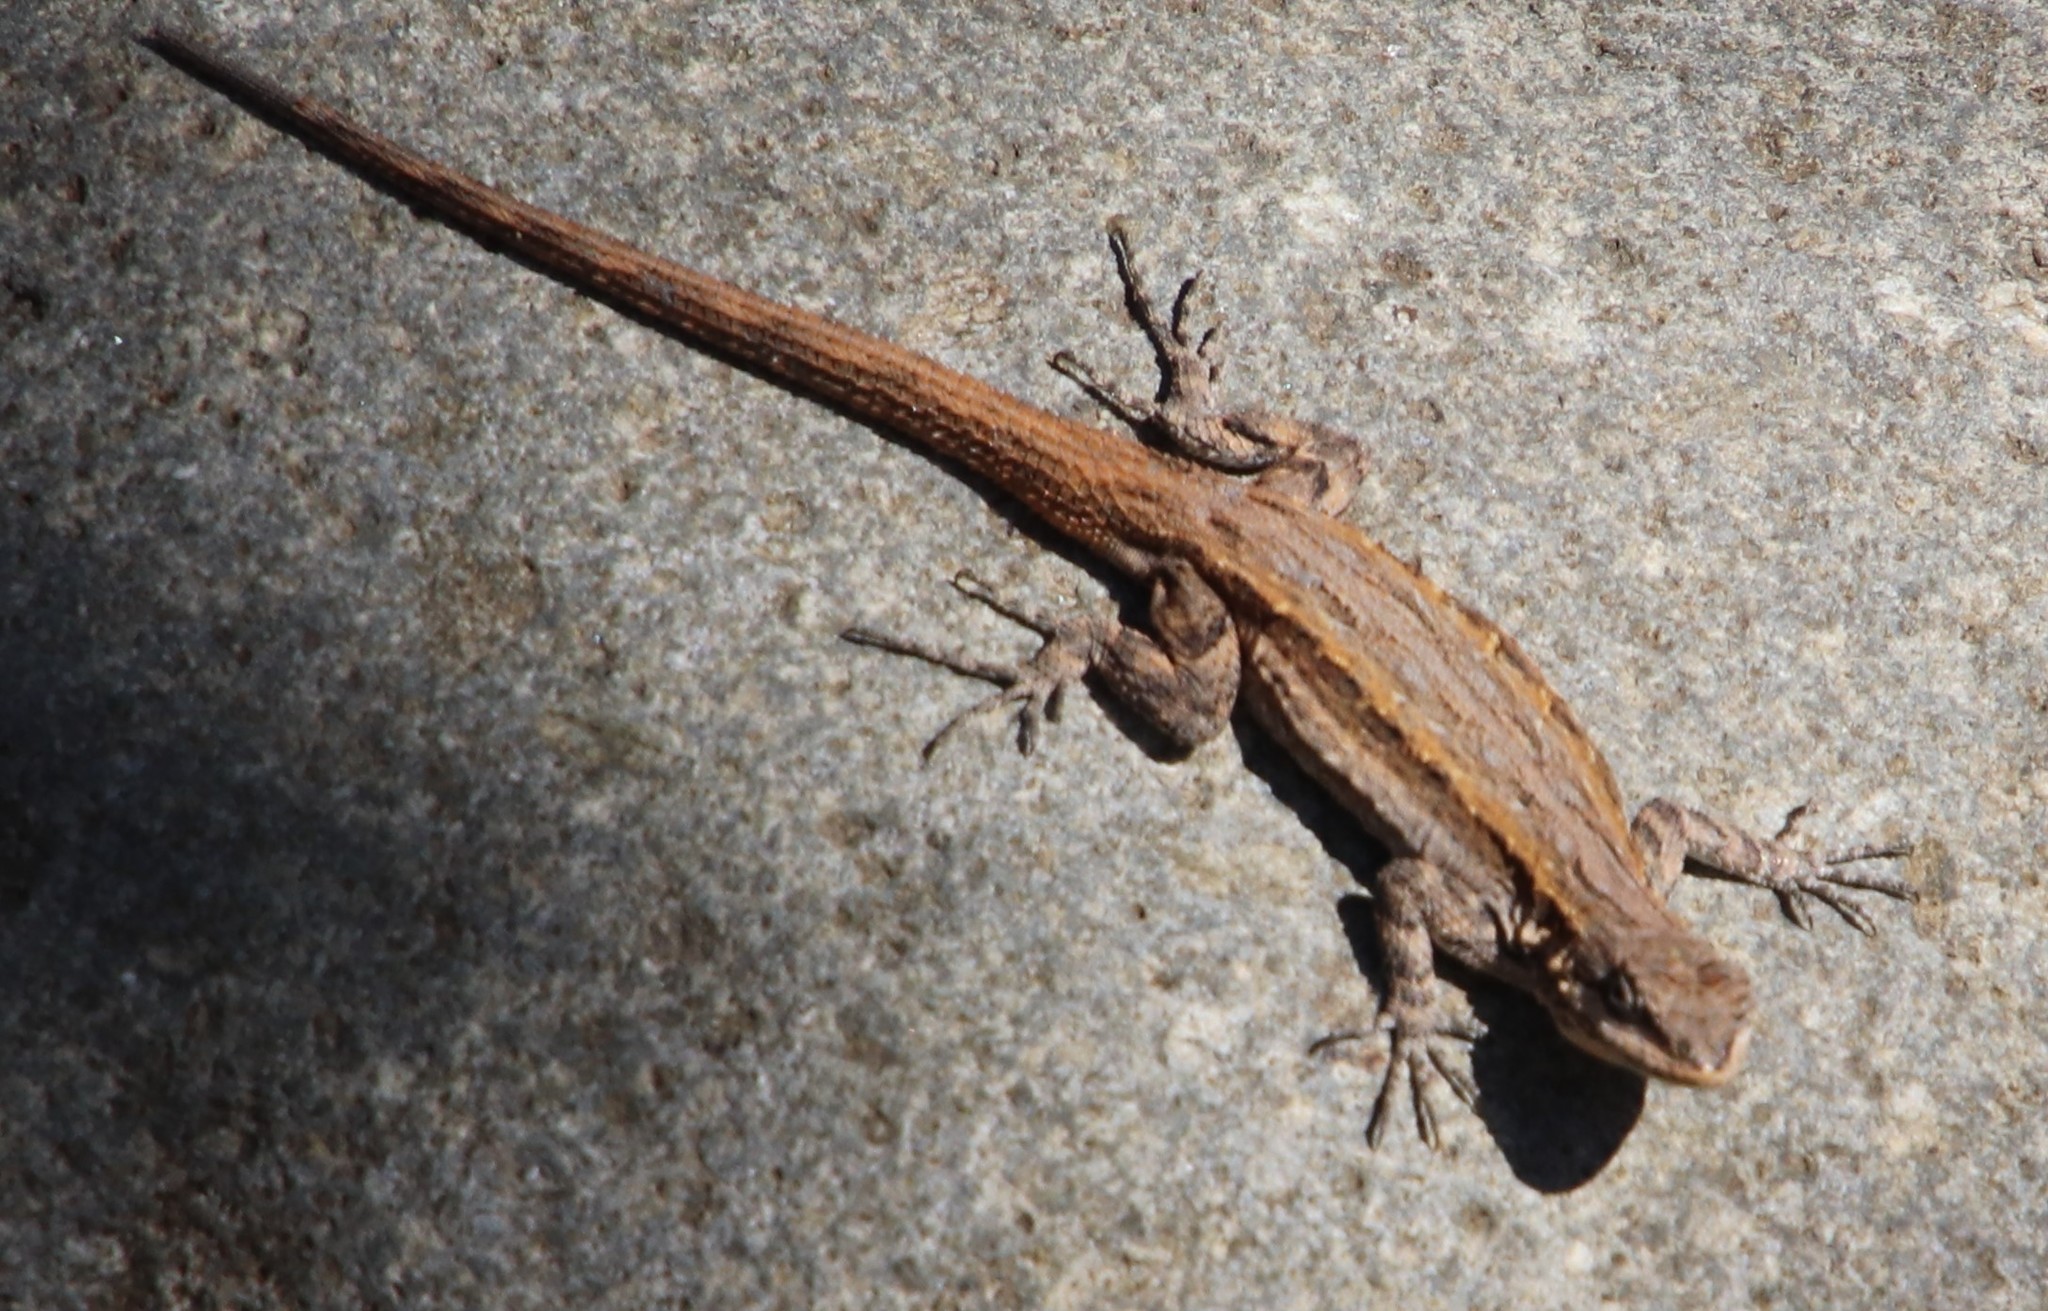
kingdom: Animalia
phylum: Chordata
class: Squamata
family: Phrynosomatidae
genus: Urosaurus
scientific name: Urosaurus ornatus
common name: Ornate tree lizard
